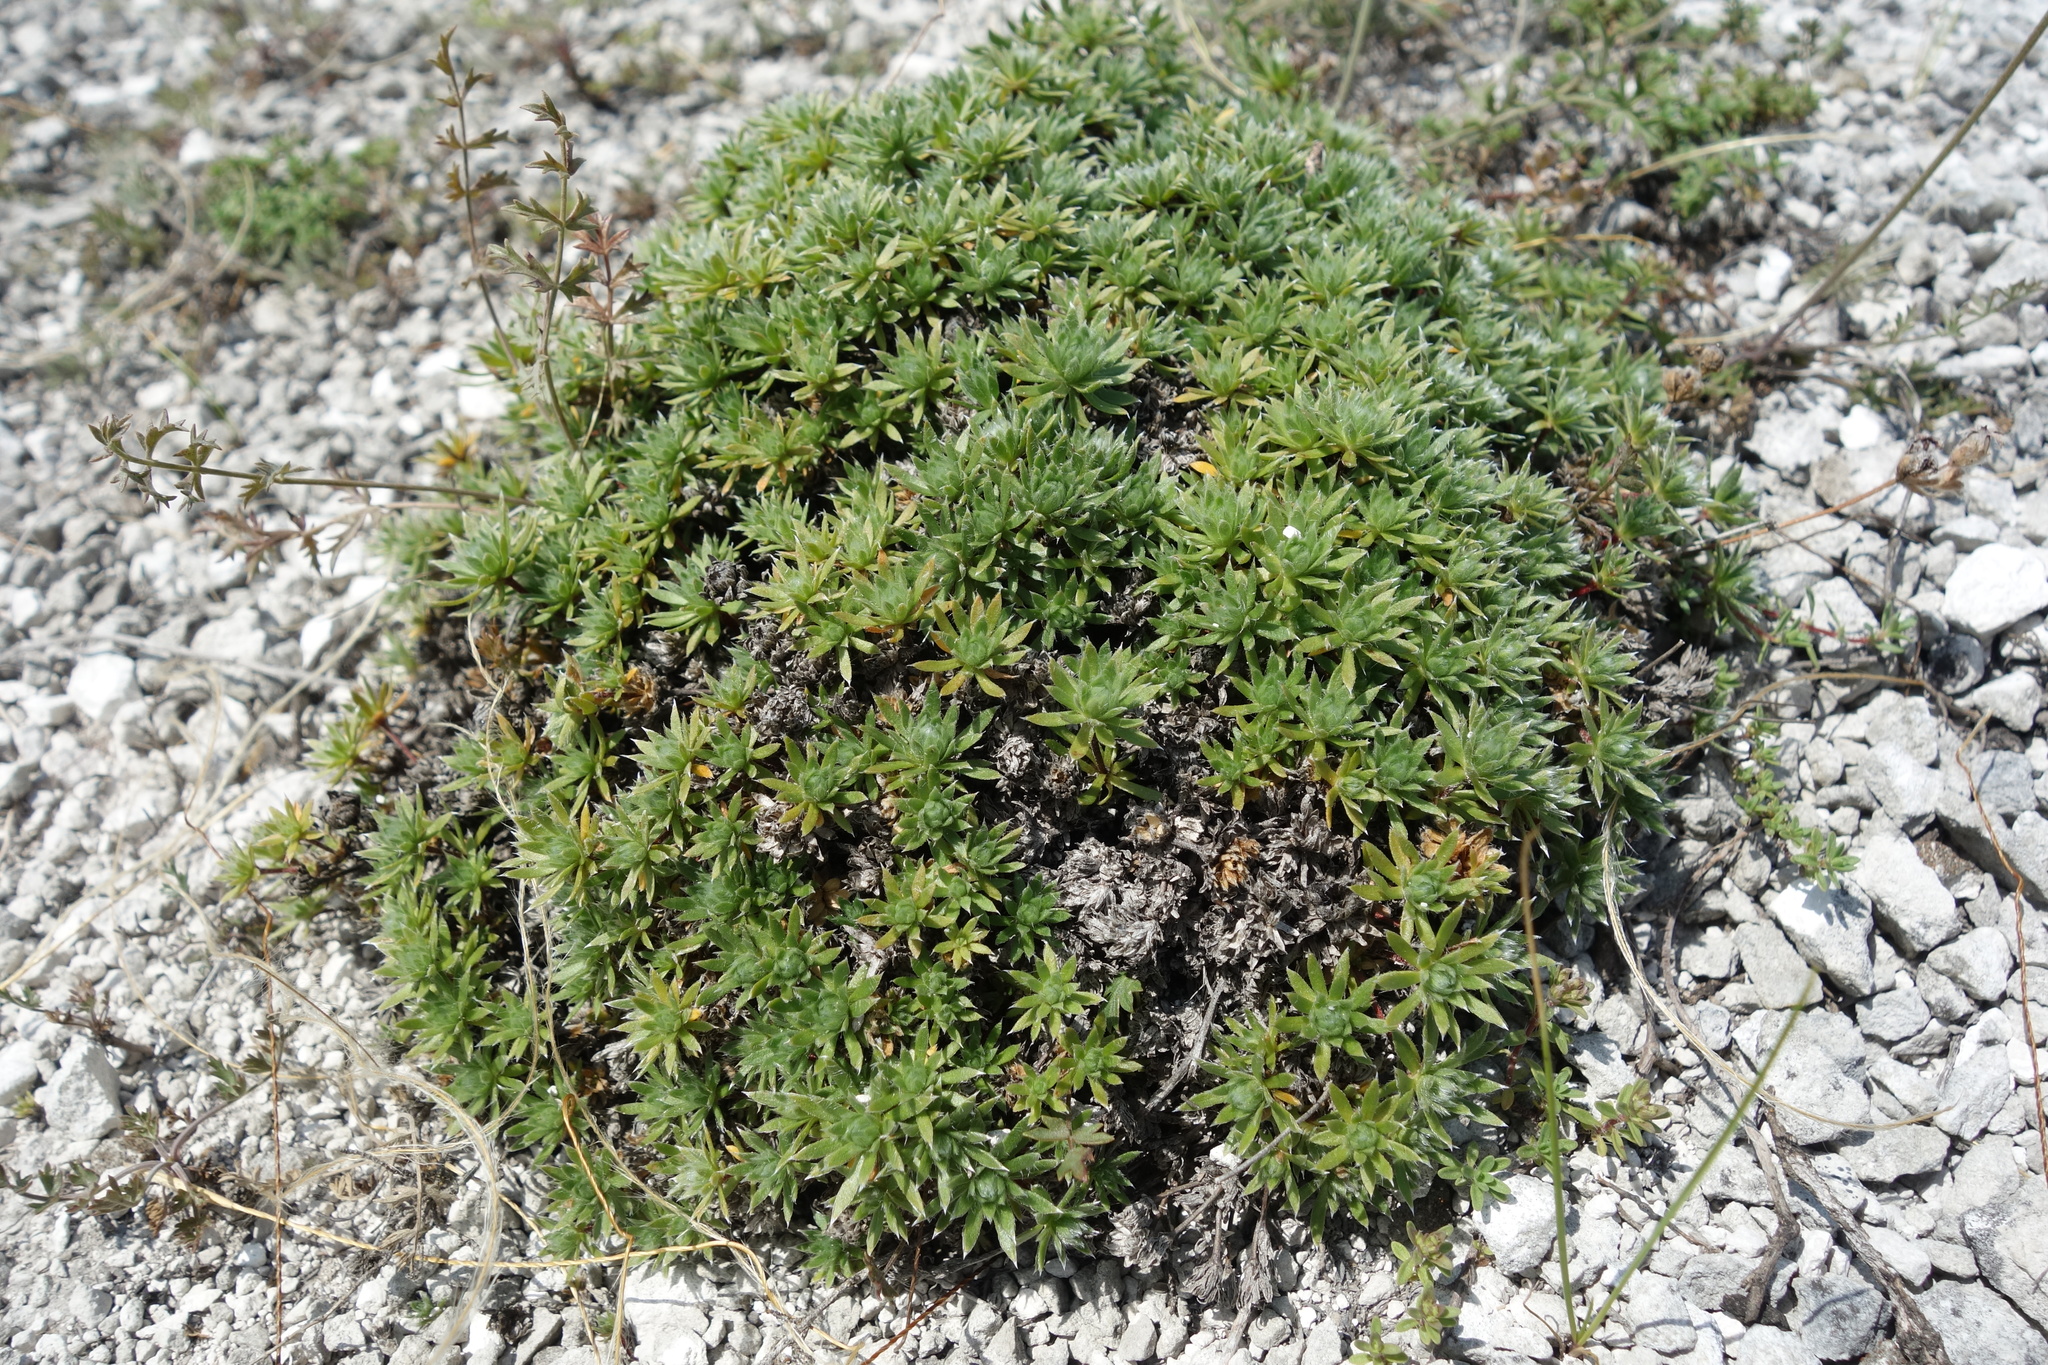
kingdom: Plantae
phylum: Tracheophyta
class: Magnoliopsida
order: Ericales
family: Primulaceae
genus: Androsace
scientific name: Androsace villosa
